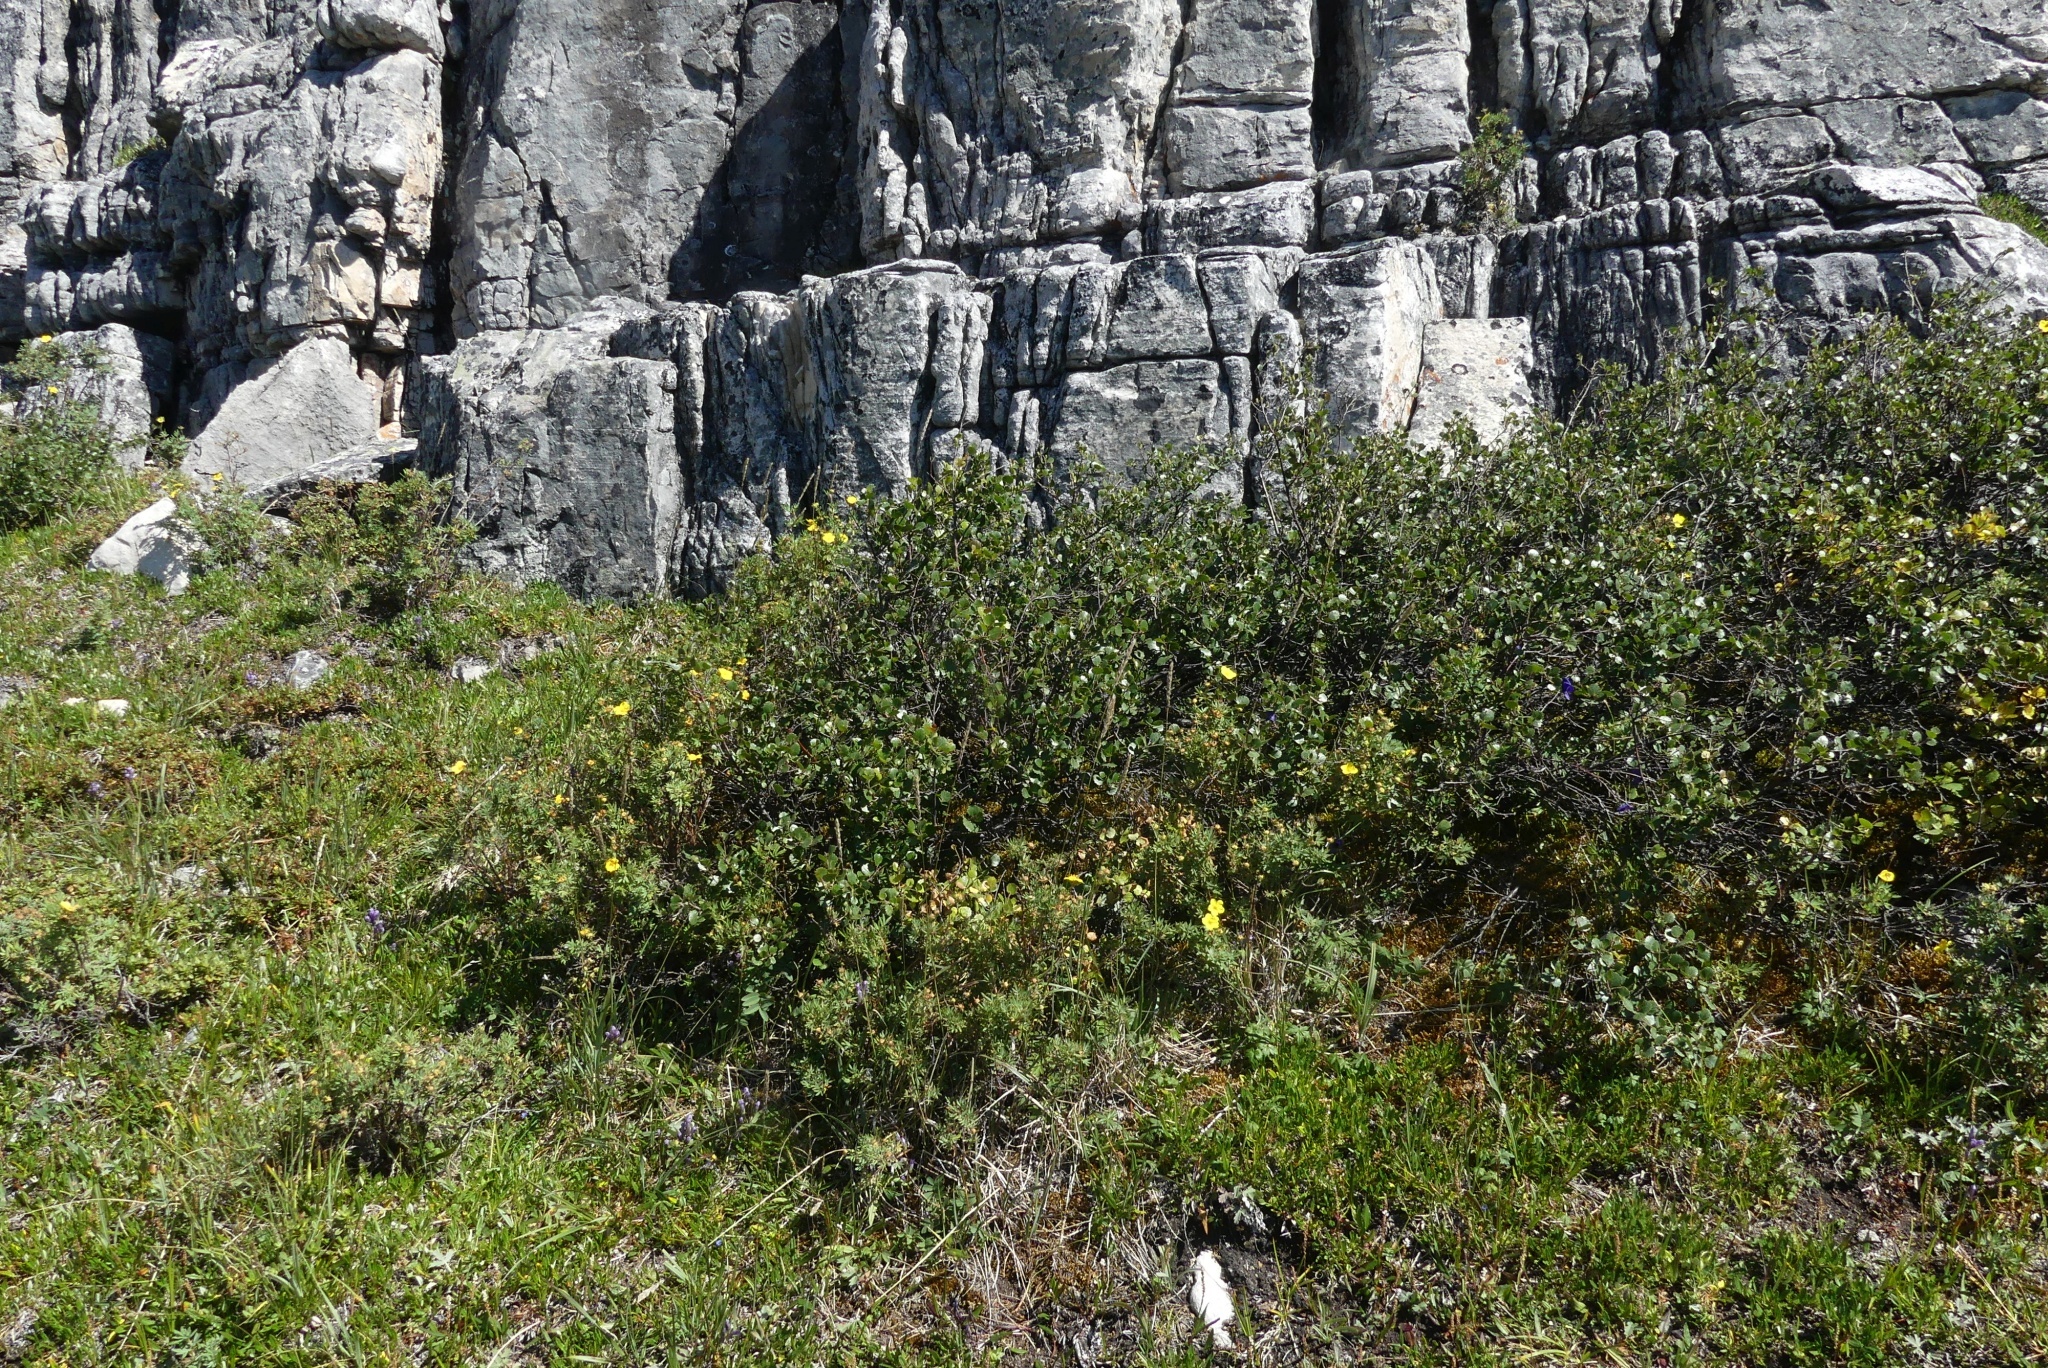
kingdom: Plantae
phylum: Tracheophyta
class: Magnoliopsida
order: Rosales
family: Rosaceae
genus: Dasiphora
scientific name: Dasiphora fruticosa
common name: Shrubby cinquefoil
